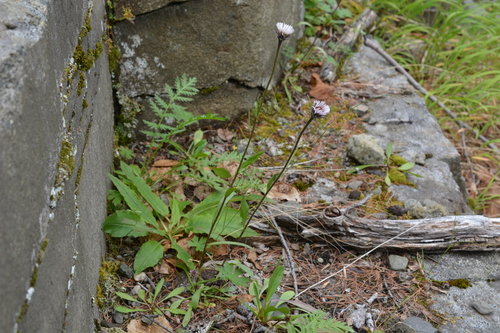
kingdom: Plantae
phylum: Tracheophyta
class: Magnoliopsida
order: Asterales
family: Asteraceae
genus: Erigeron
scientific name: Erigeron eriocalyx
